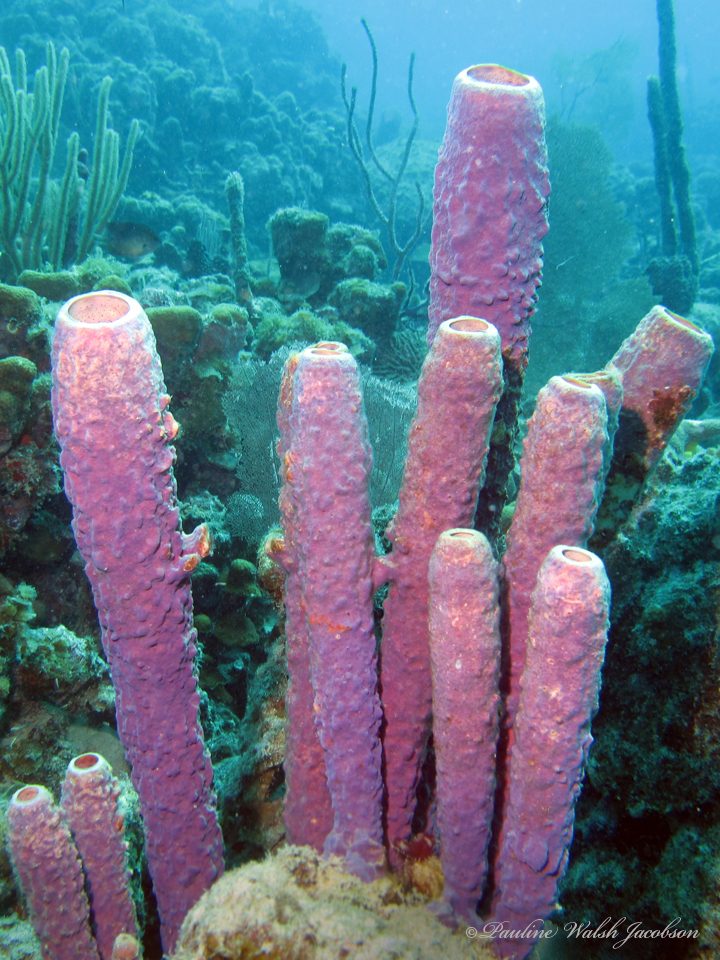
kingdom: Animalia
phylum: Porifera
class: Demospongiae
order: Verongiida
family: Aplysinidae
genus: Aplysina
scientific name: Aplysina archeri
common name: Stove-pipe sponge
